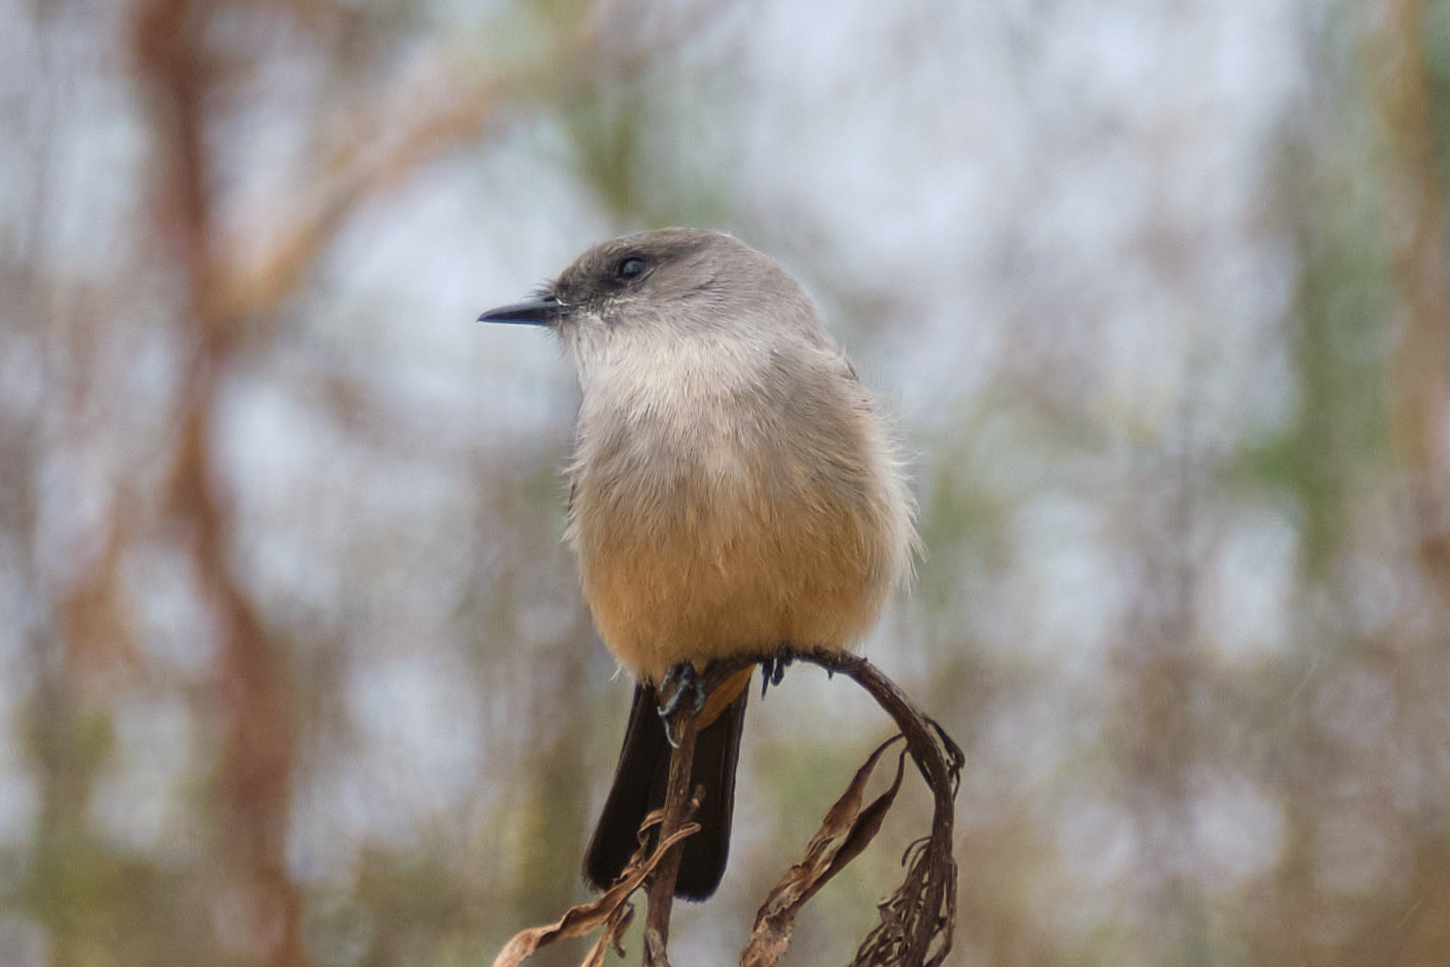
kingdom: Animalia
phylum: Chordata
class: Aves
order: Passeriformes
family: Tyrannidae
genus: Sayornis
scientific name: Sayornis saya
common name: Say's phoebe
